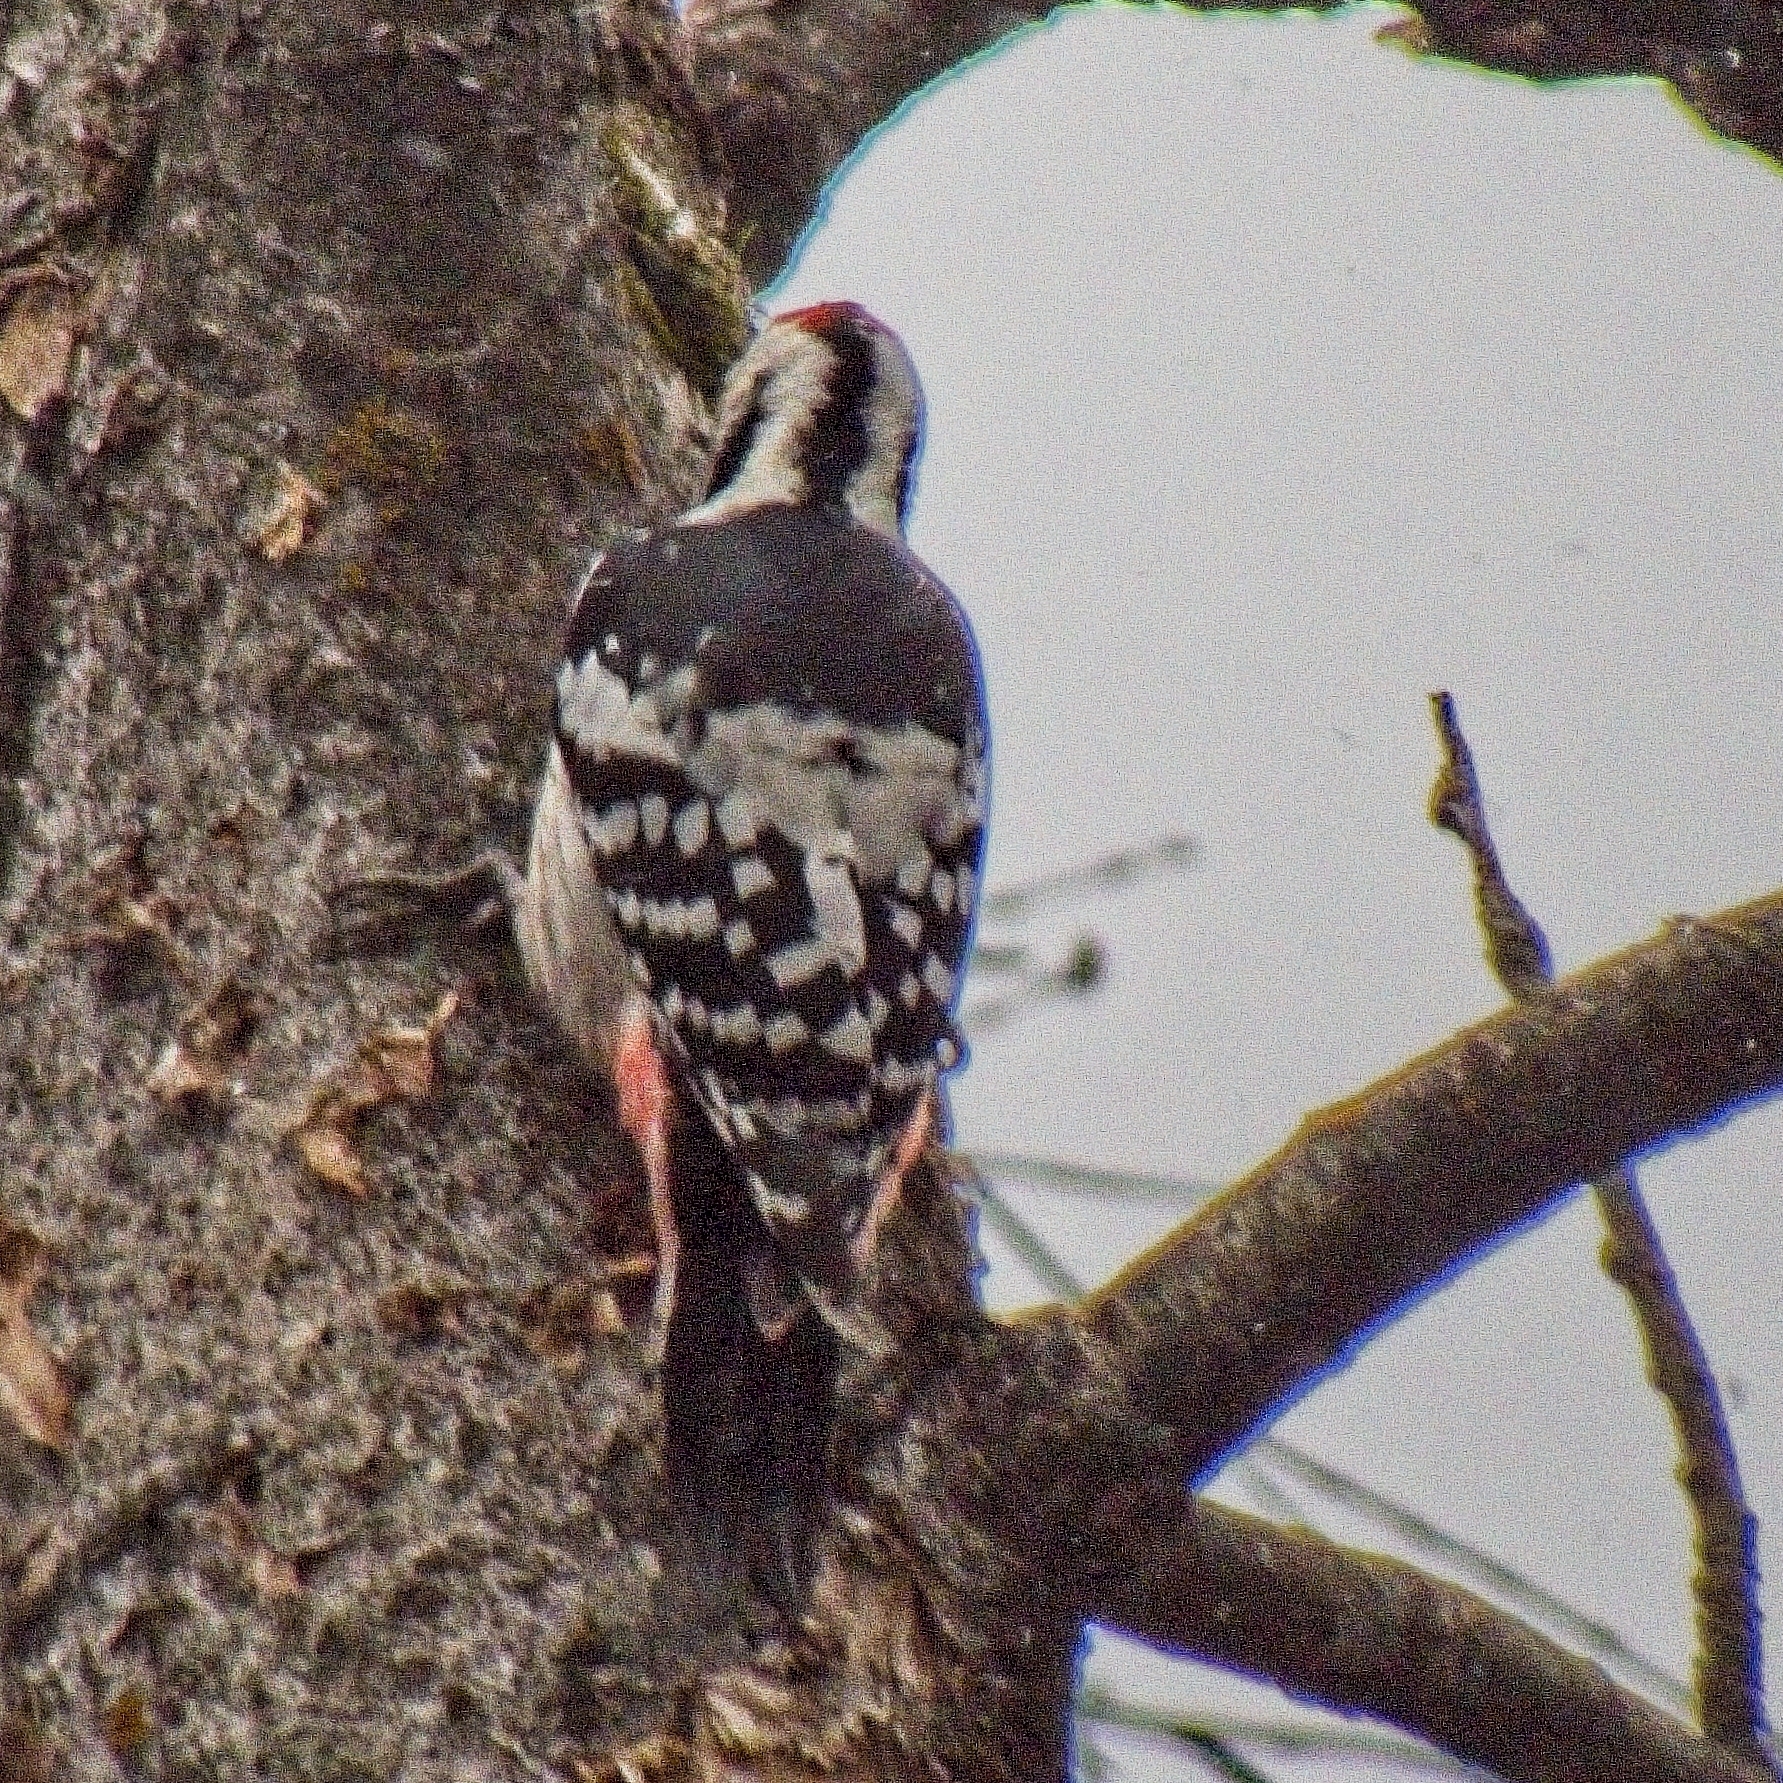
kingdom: Animalia
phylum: Chordata
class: Aves
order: Piciformes
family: Picidae
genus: Dendrocopos
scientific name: Dendrocopos leucotos
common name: White-backed woodpecker
